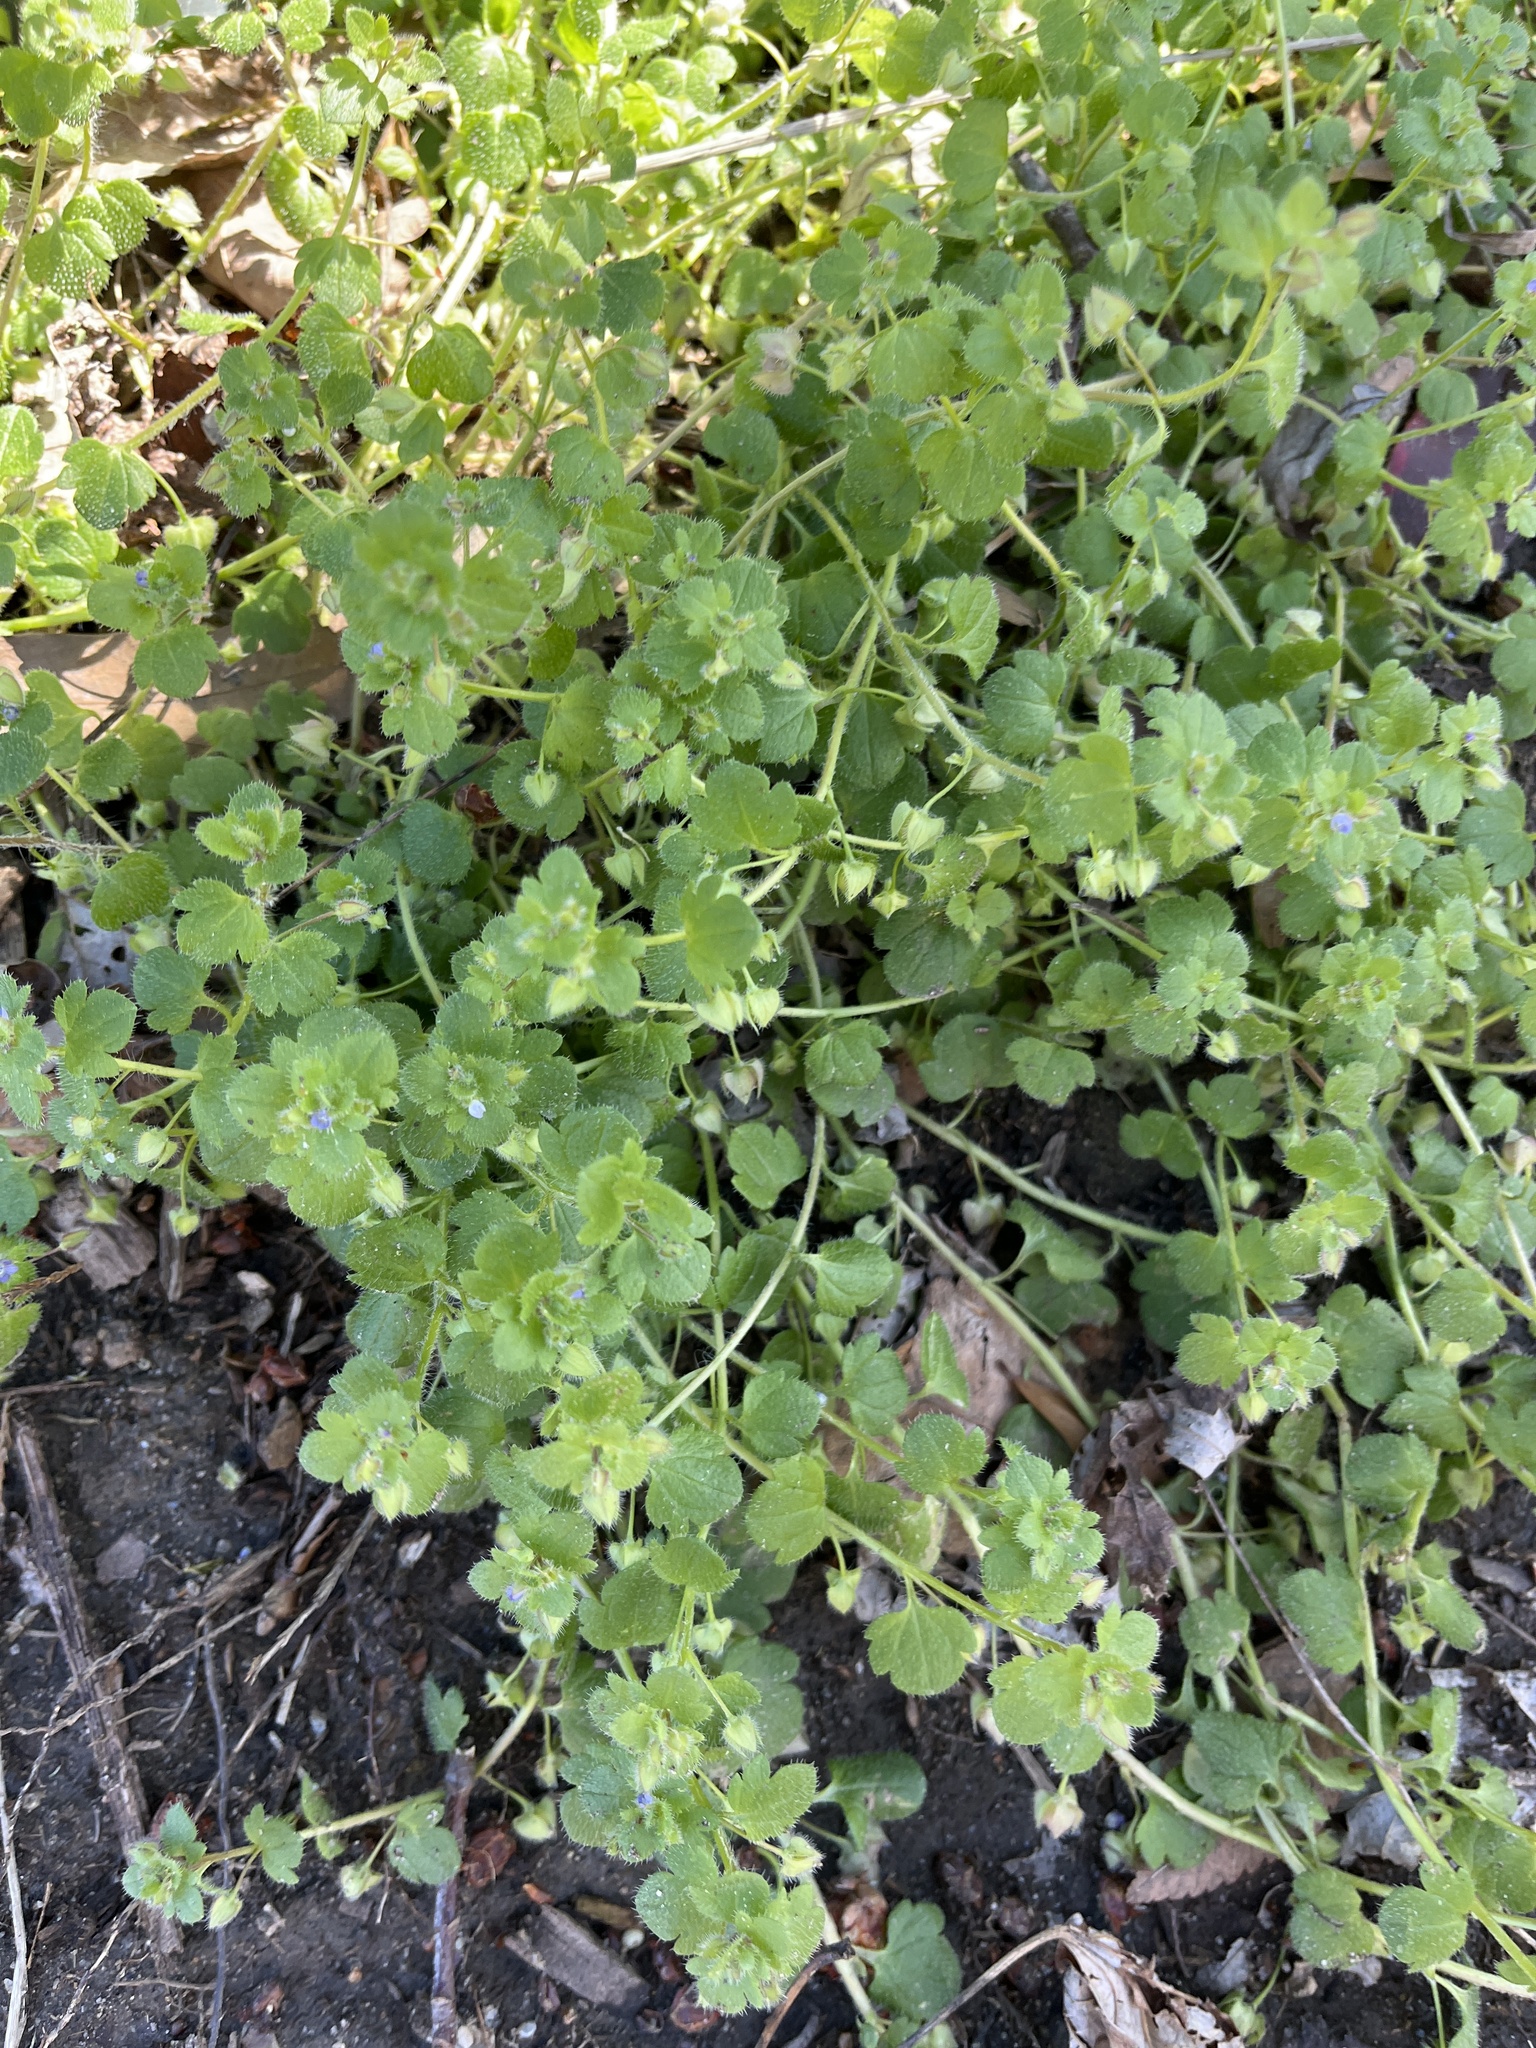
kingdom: Plantae
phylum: Tracheophyta
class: Magnoliopsida
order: Lamiales
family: Plantaginaceae
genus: Veronica
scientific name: Veronica hederifolia
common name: Ivy-leaved speedwell
